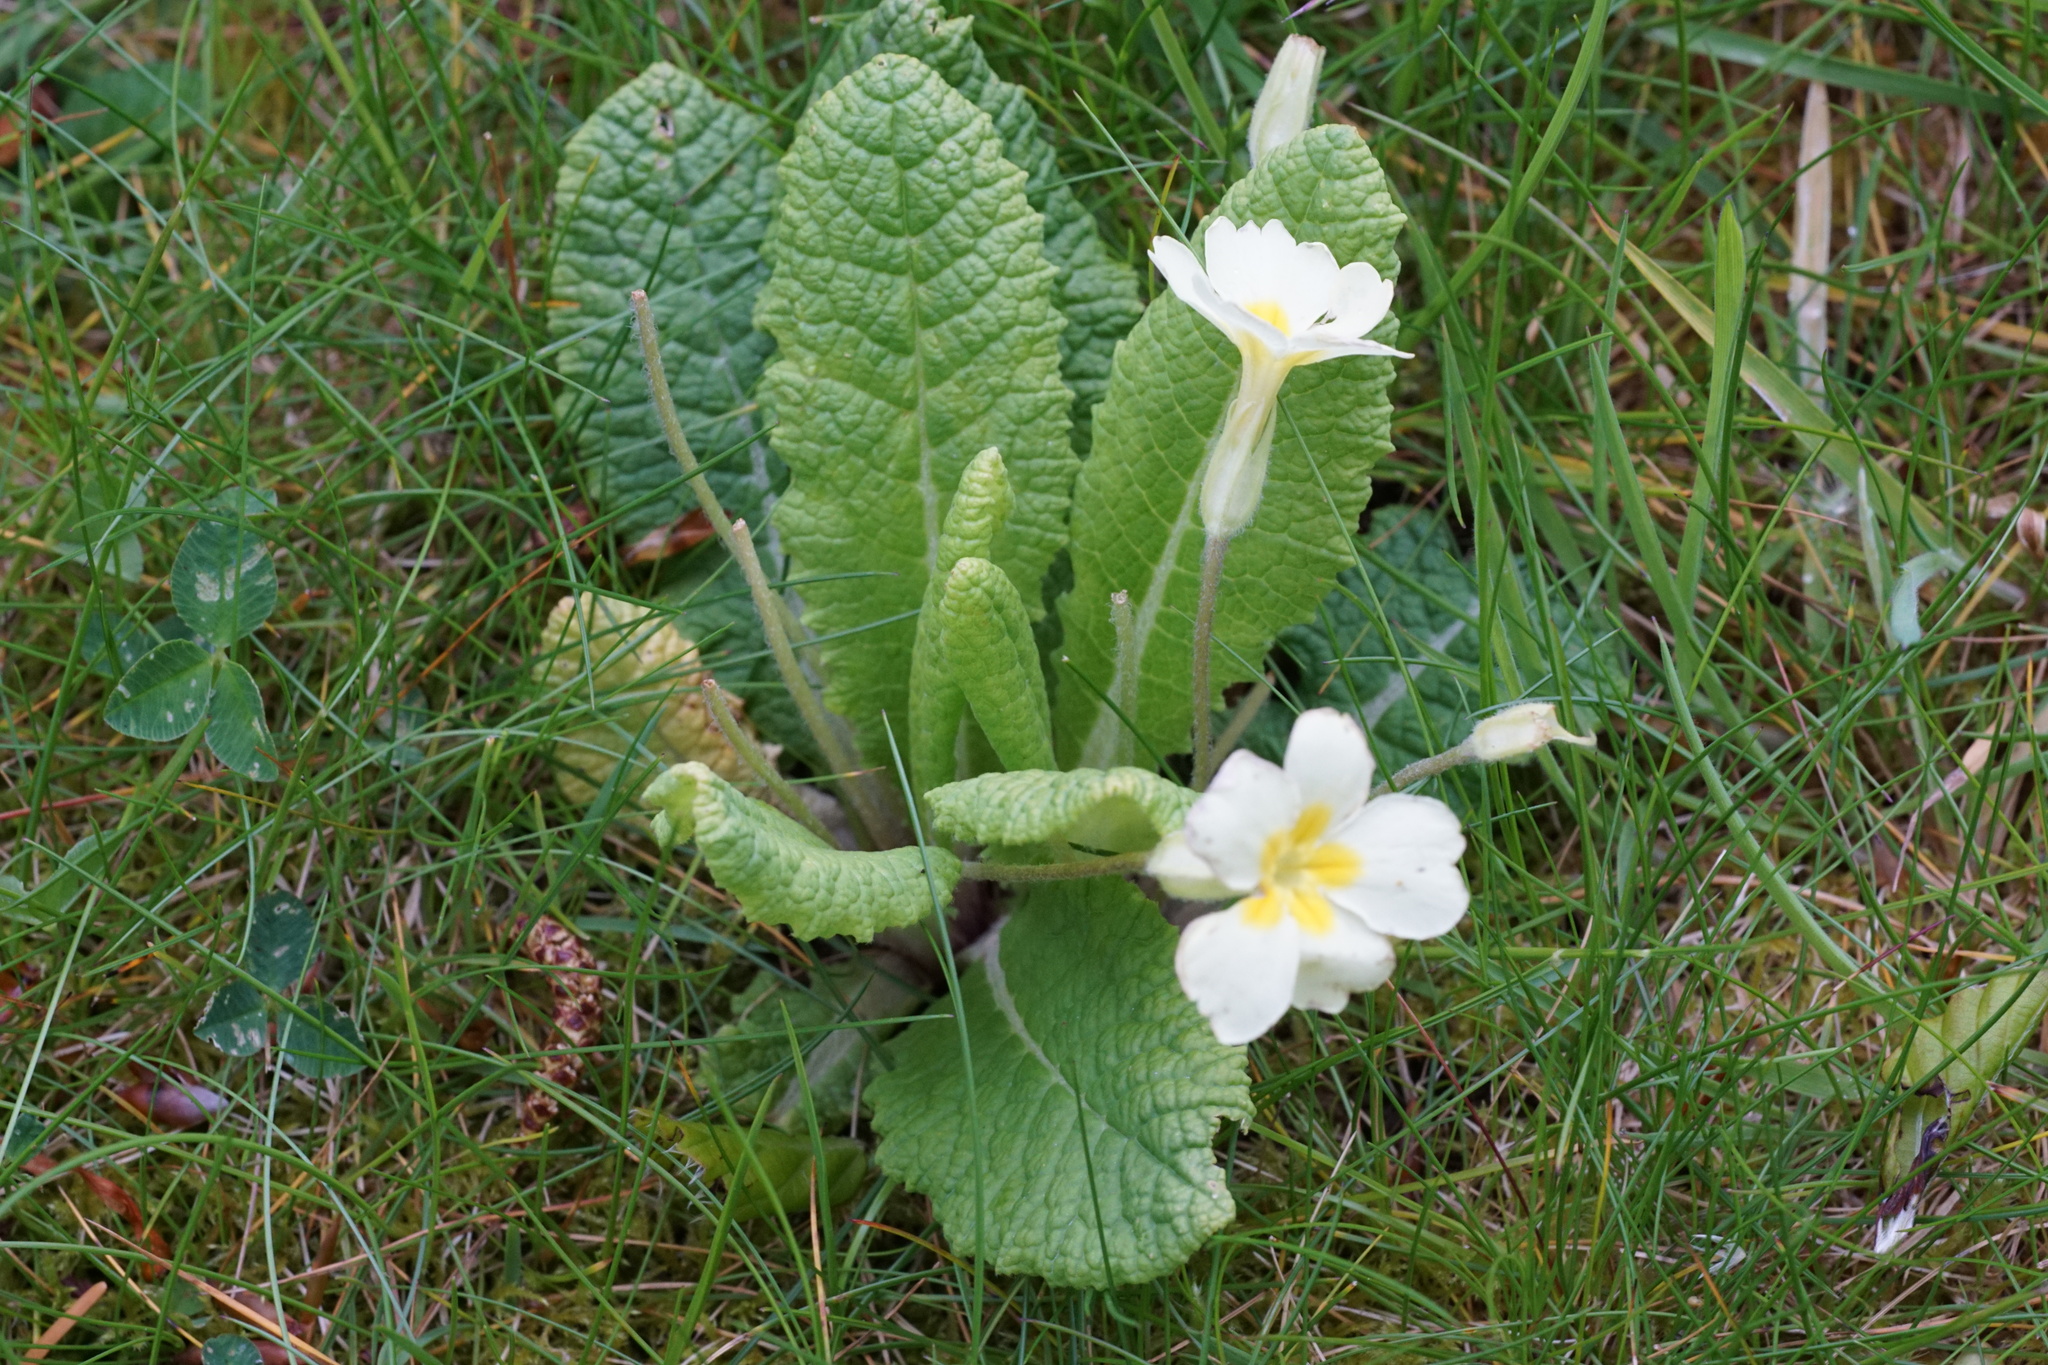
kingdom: Plantae
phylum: Tracheophyta
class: Magnoliopsida
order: Ericales
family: Primulaceae
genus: Primula
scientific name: Primula vulgaris
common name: Primrose
